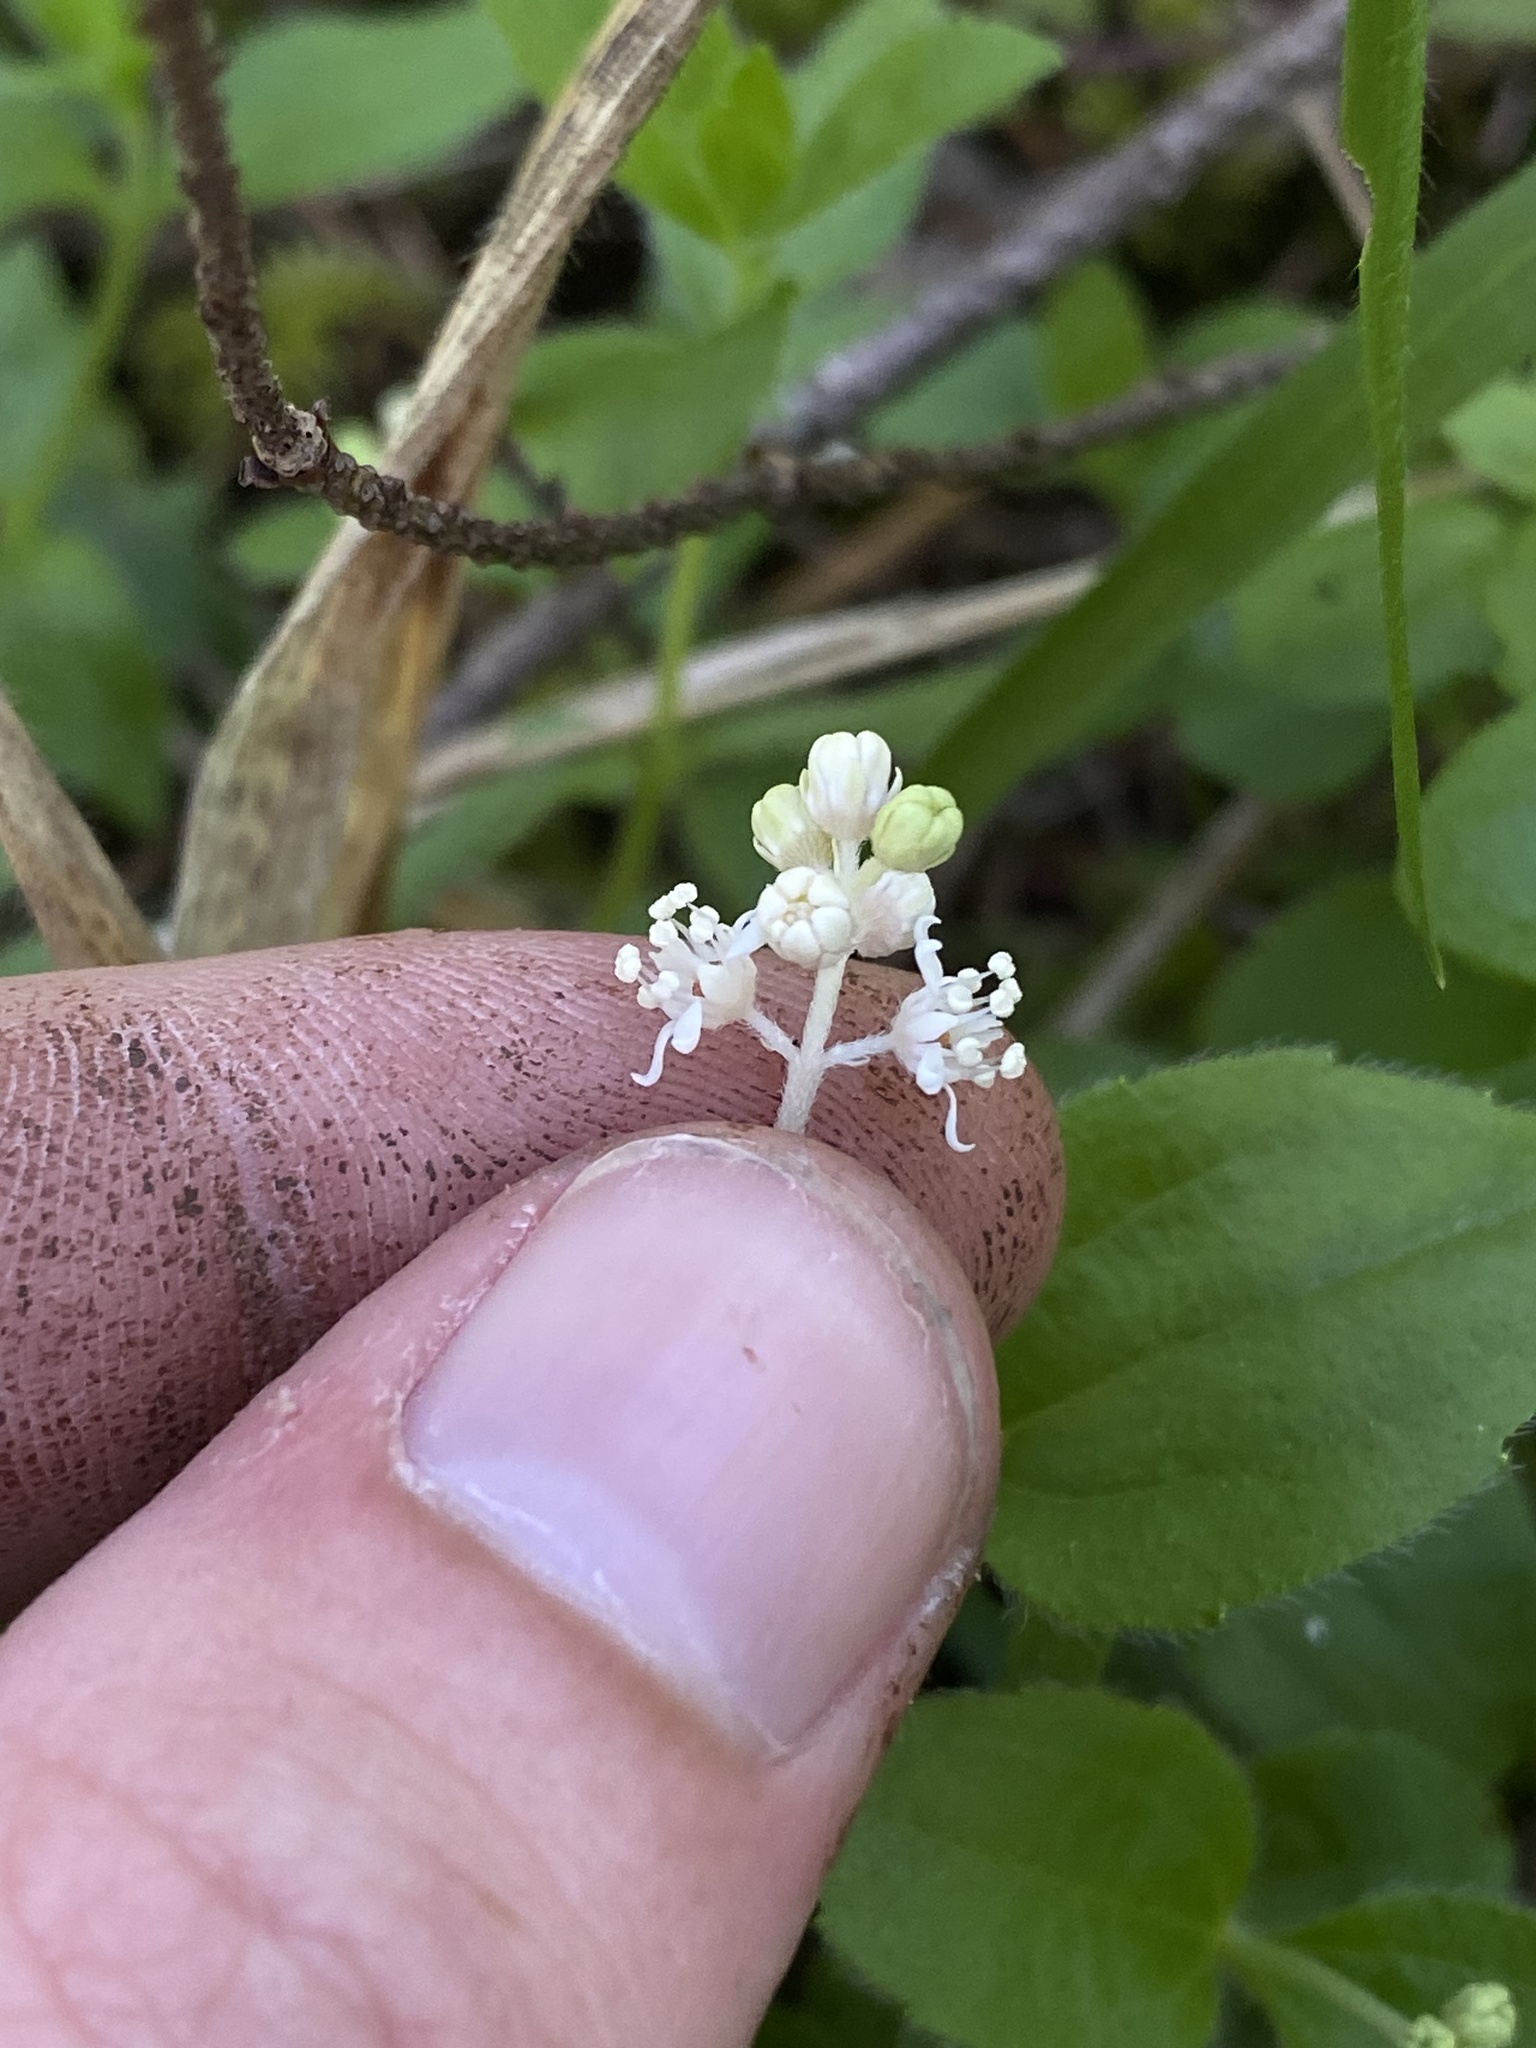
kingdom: Plantae
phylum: Tracheophyta
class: Magnoliopsida
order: Cornales
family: Hydrangeaceae
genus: Whipplea
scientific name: Whipplea modesta
